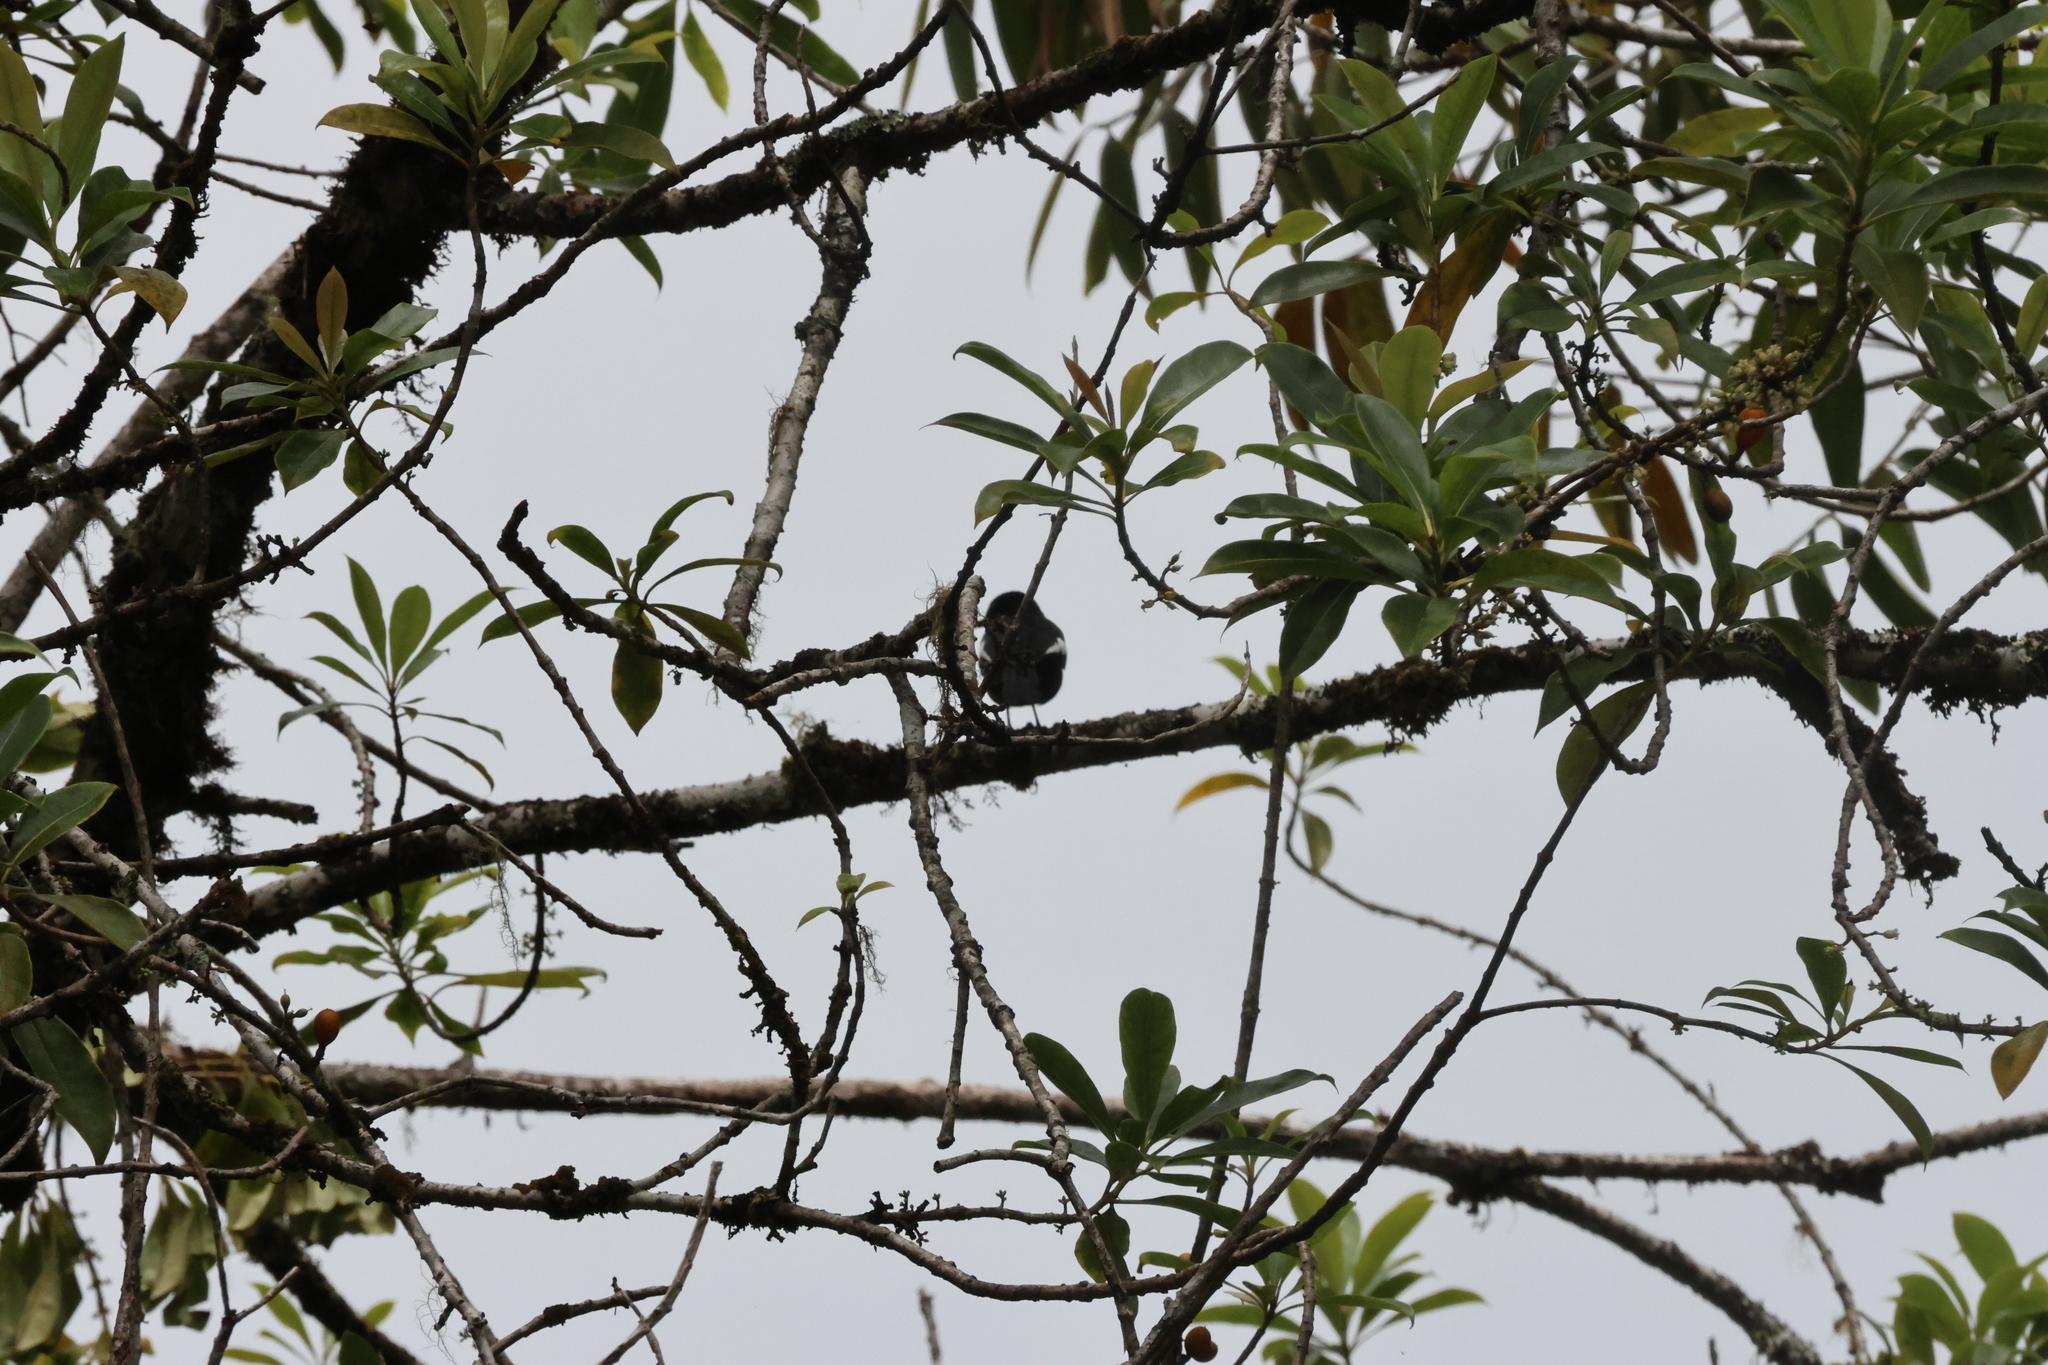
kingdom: Animalia
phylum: Chordata
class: Aves
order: Passeriformes
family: Muscicapidae
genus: Copsychus
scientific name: Copsychus saularis
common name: Oriental magpie-robin
